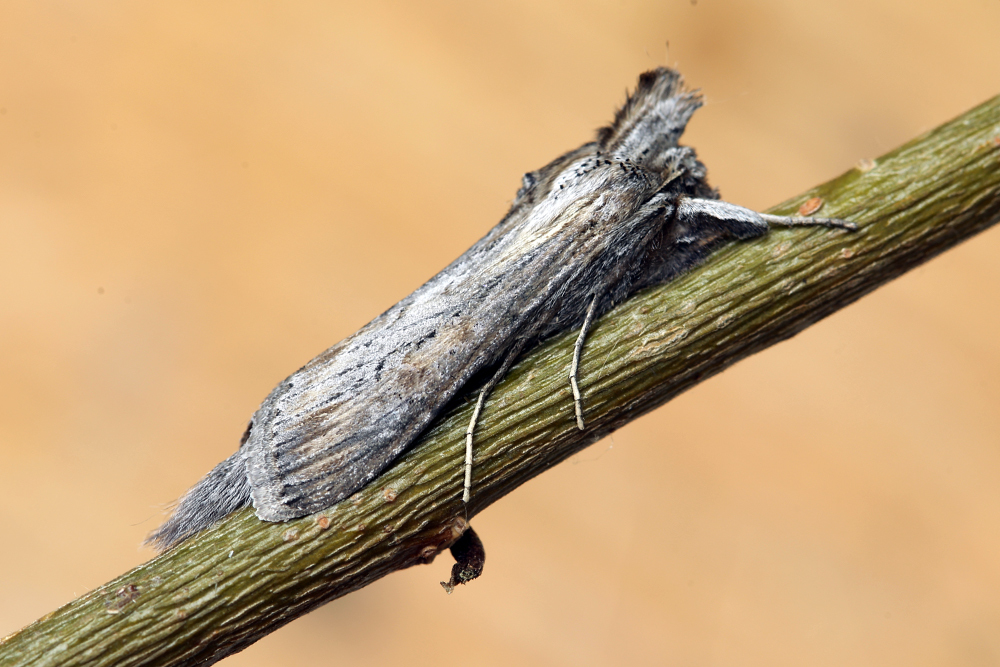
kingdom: Animalia
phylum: Arthropoda
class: Insecta
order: Lepidoptera
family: Noctuidae
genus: Cucullia
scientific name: Cucullia mixta
